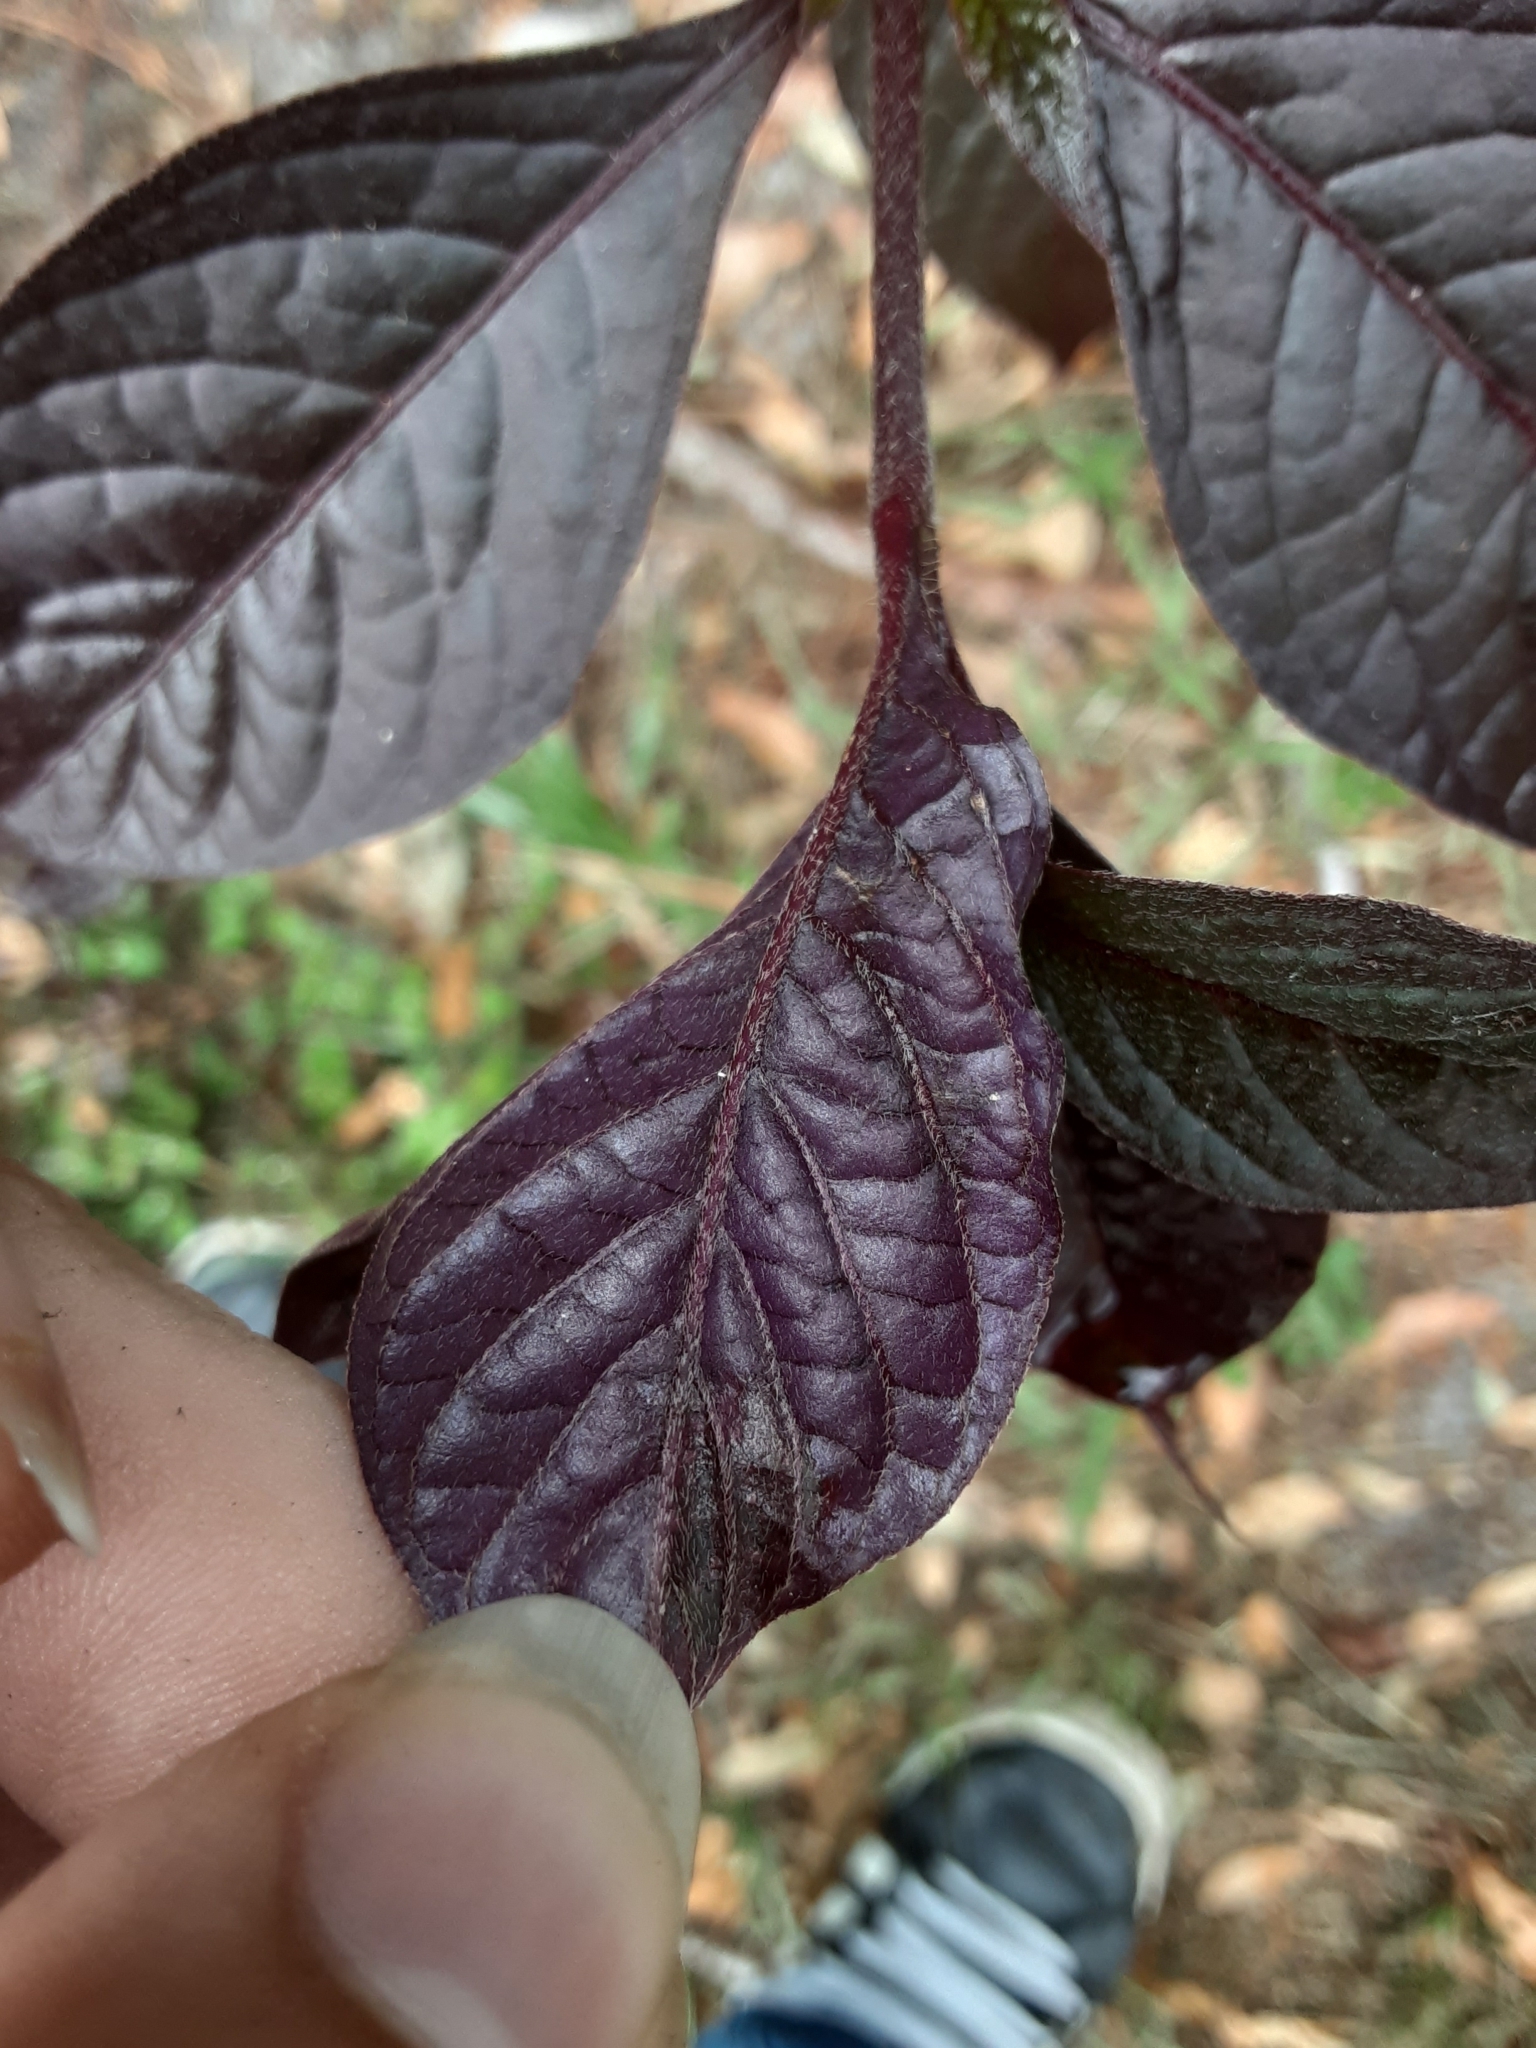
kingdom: Plantae
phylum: Tracheophyta
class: Magnoliopsida
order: Caryophyllales
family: Amaranthaceae
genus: Alternanthera
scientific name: Alternanthera brasiliana
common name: Brazilian joyweed
